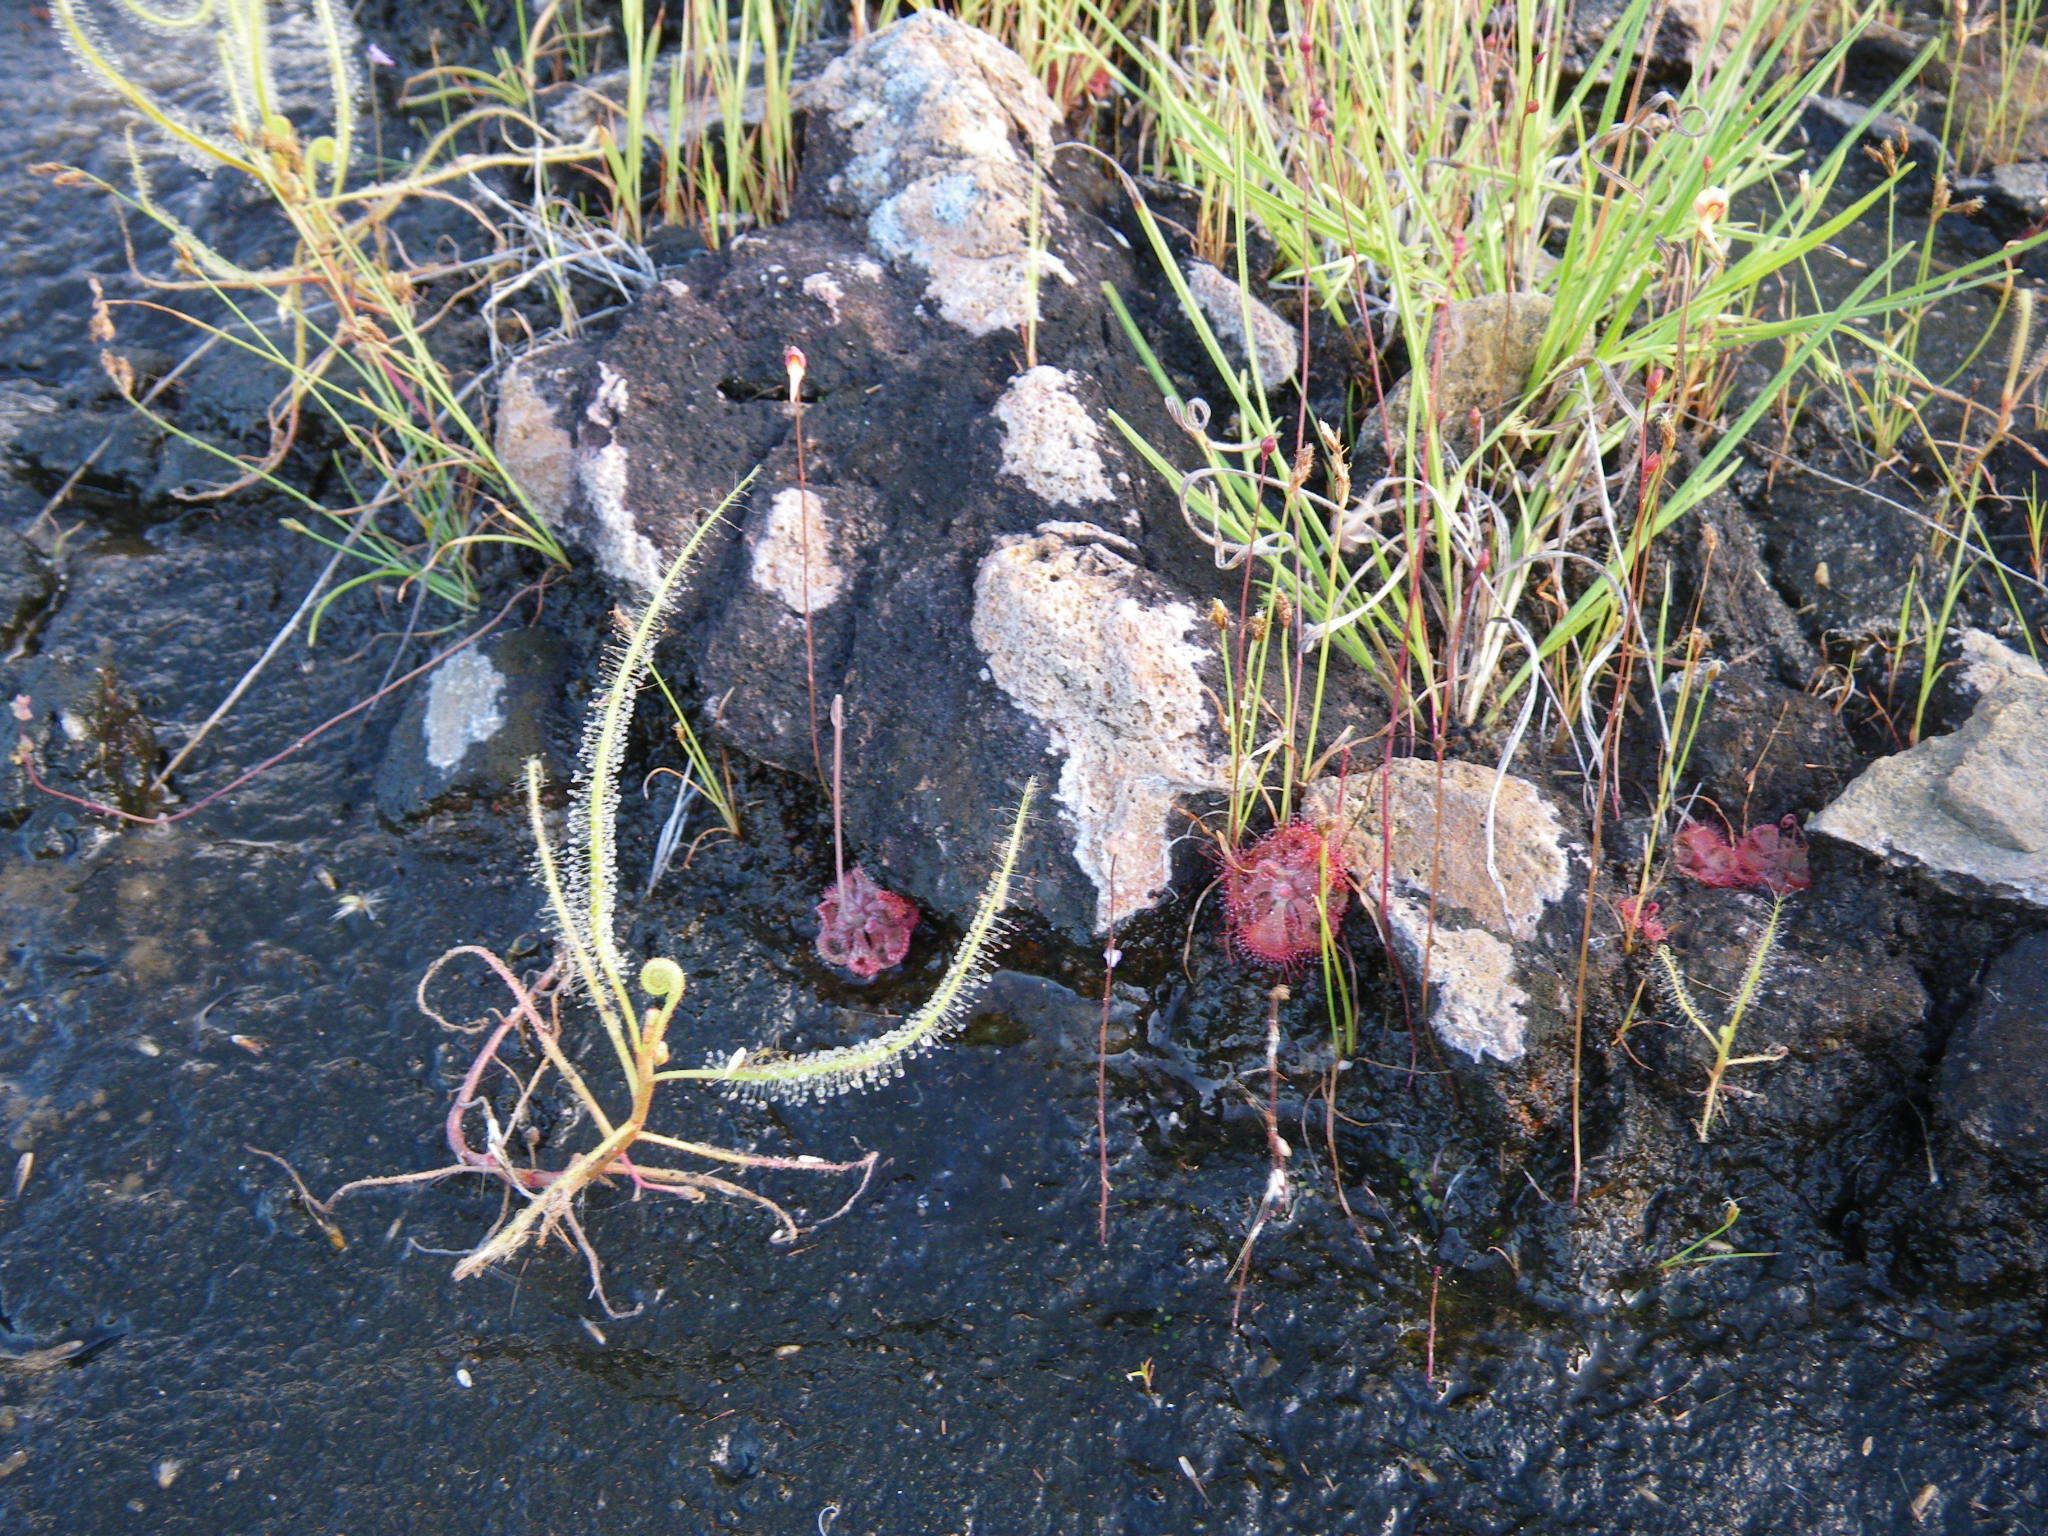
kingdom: Plantae
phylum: Tracheophyta
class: Magnoliopsida
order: Caryophyllales
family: Droseraceae
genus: Drosera
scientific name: Drosera indica
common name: Indian sundew
